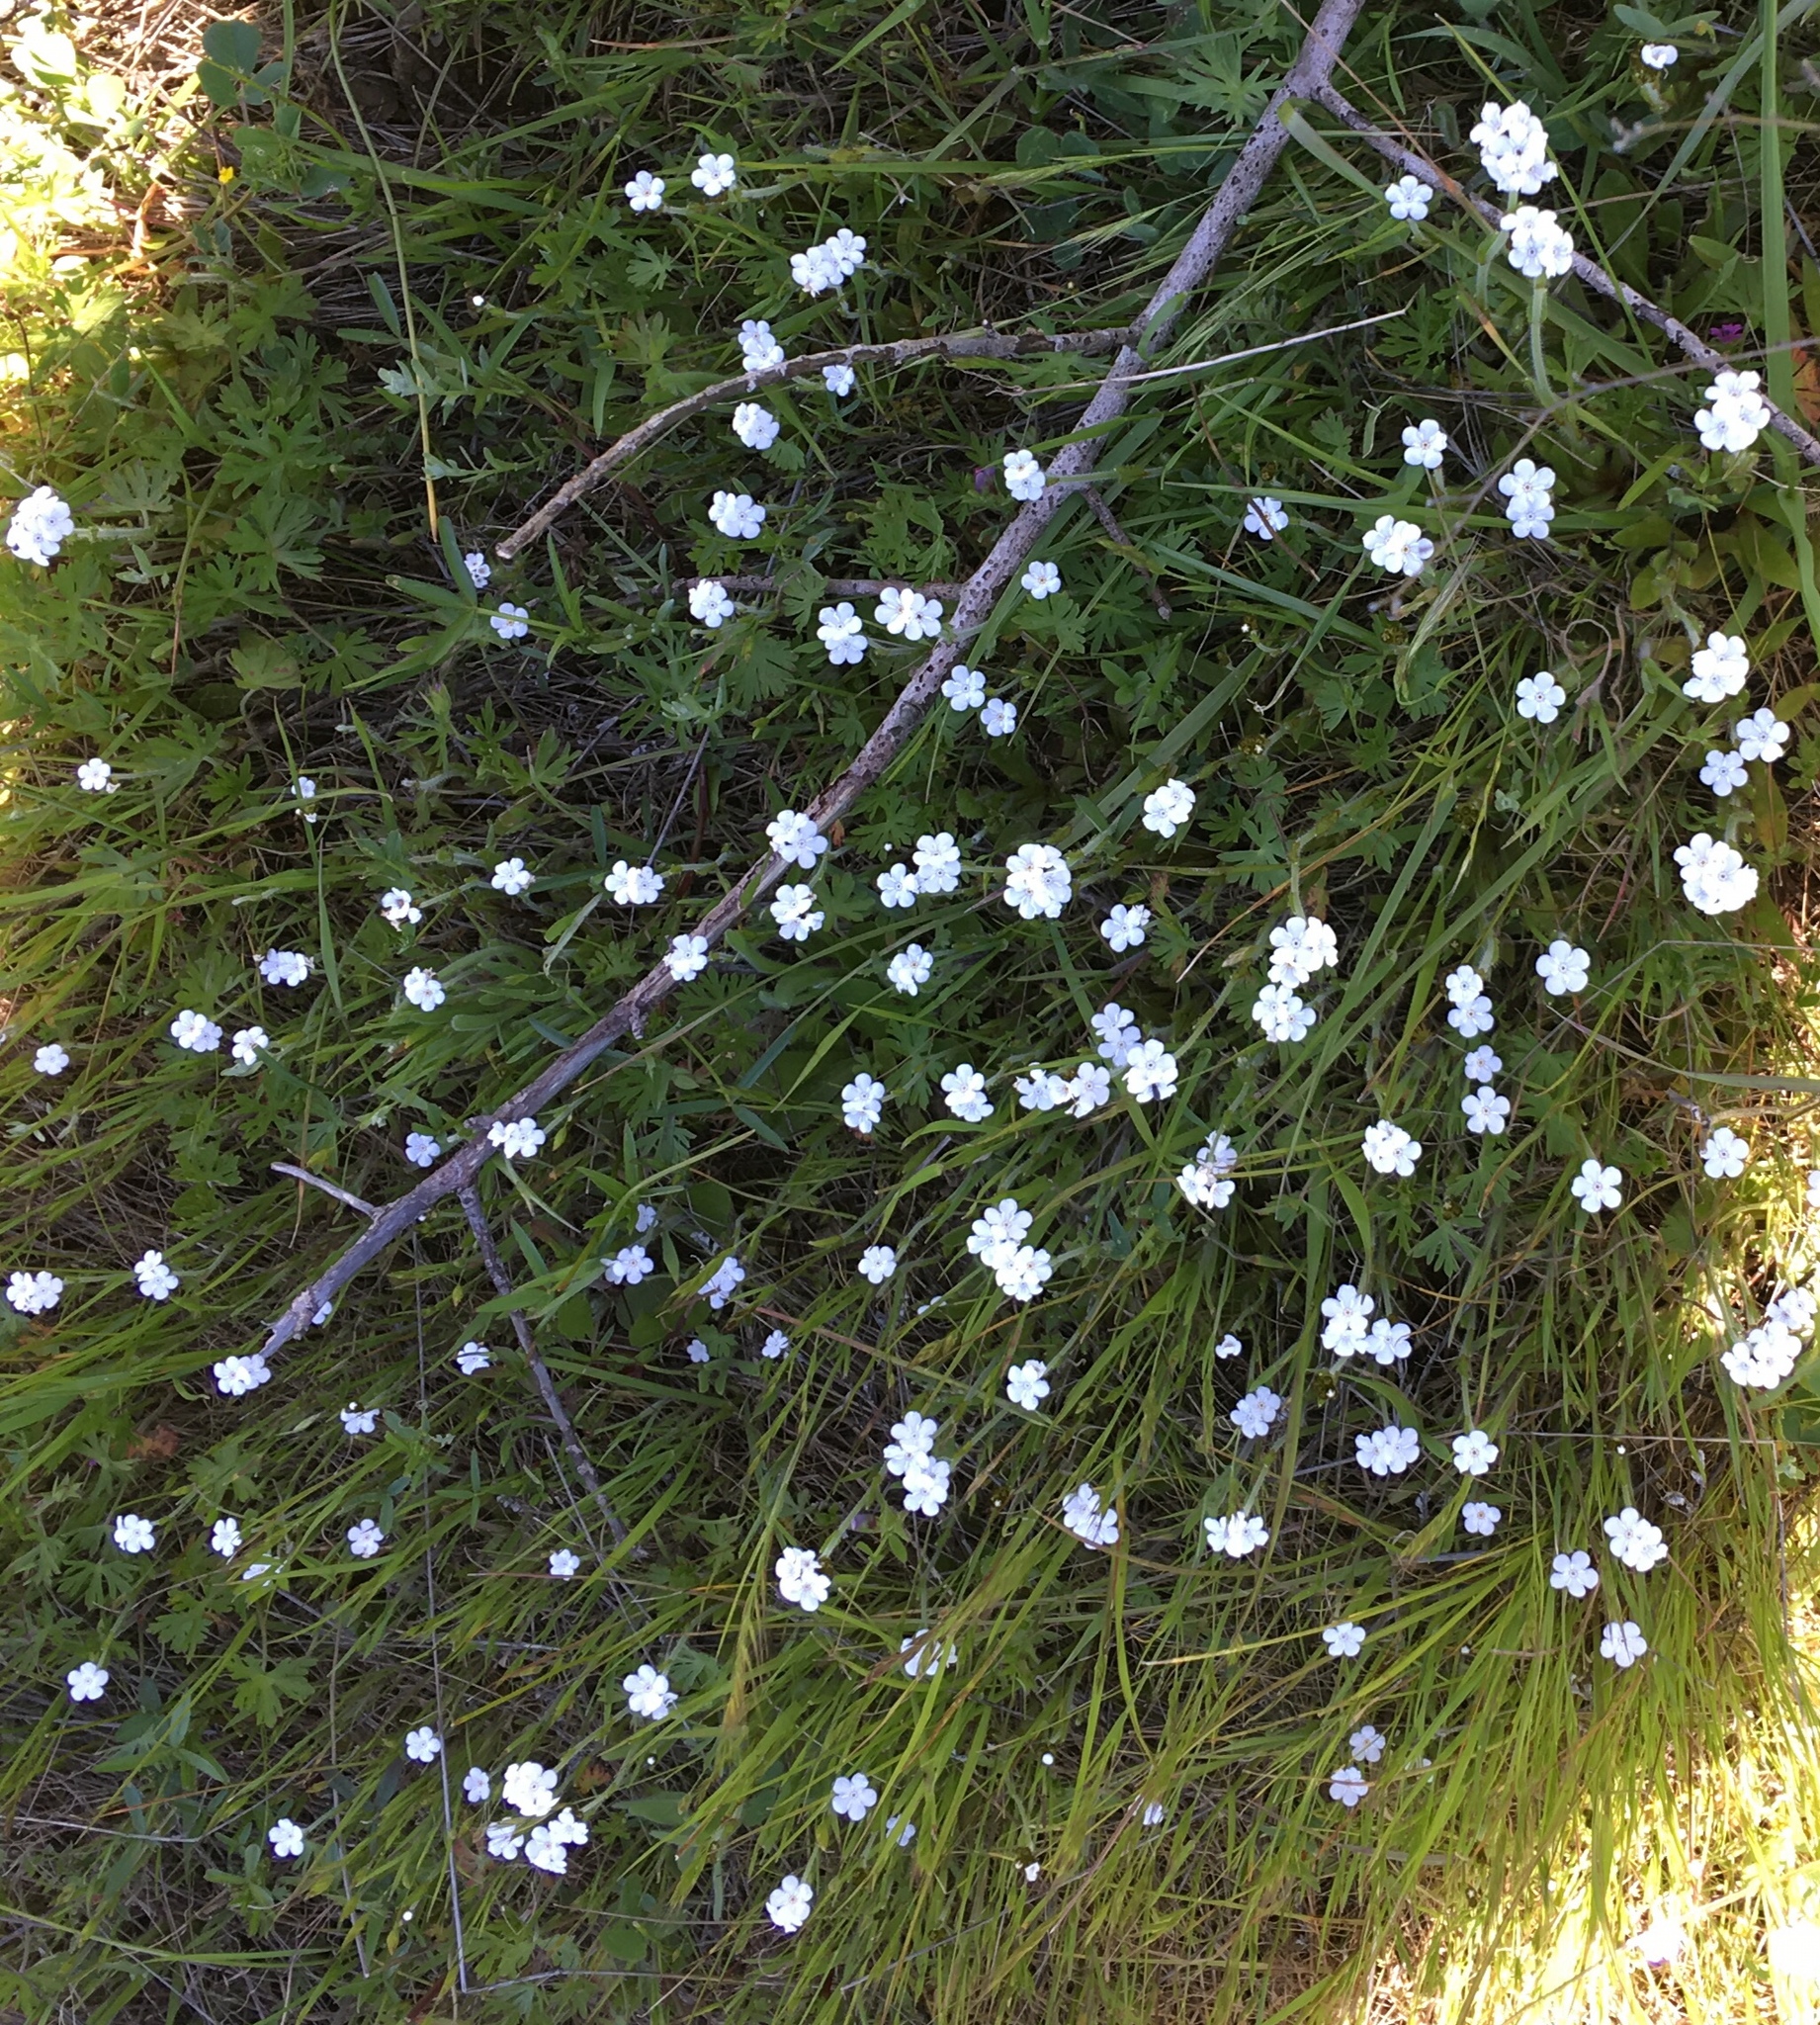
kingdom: Plantae
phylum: Tracheophyta
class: Magnoliopsida
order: Boraginales
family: Boraginaceae
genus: Plagiobothrys
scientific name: Plagiobothrys nothofulvus
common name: Popcorn-flower
